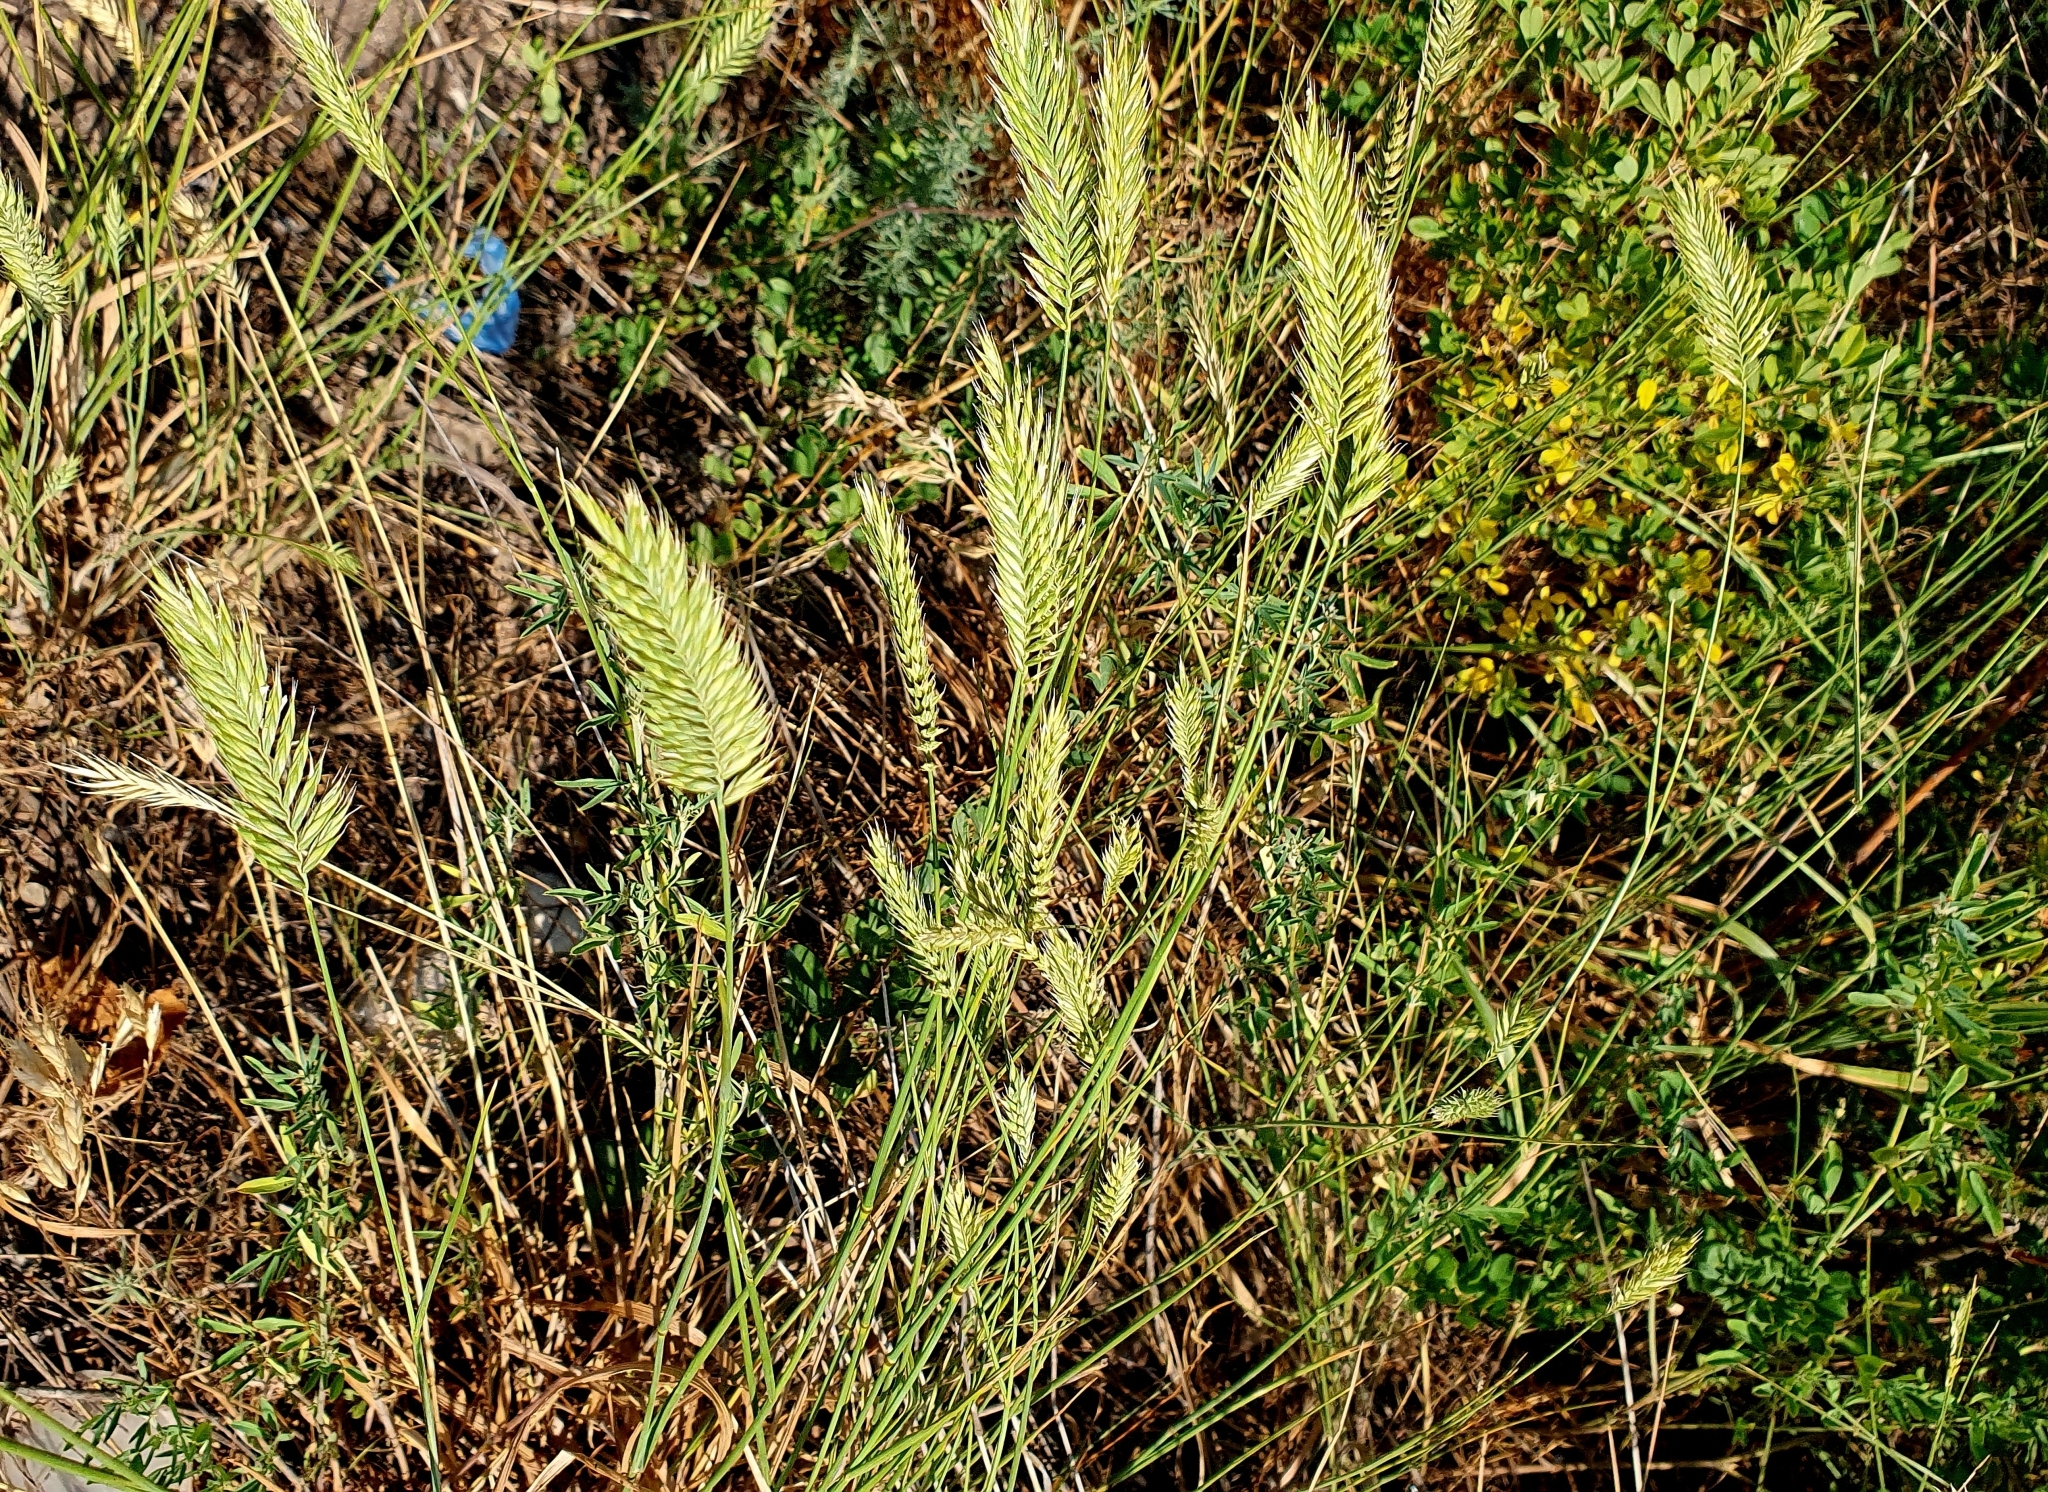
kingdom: Plantae
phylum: Tracheophyta
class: Liliopsida
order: Poales
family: Poaceae
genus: Agropyron
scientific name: Agropyron cristatum
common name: Crested wheatgrass
